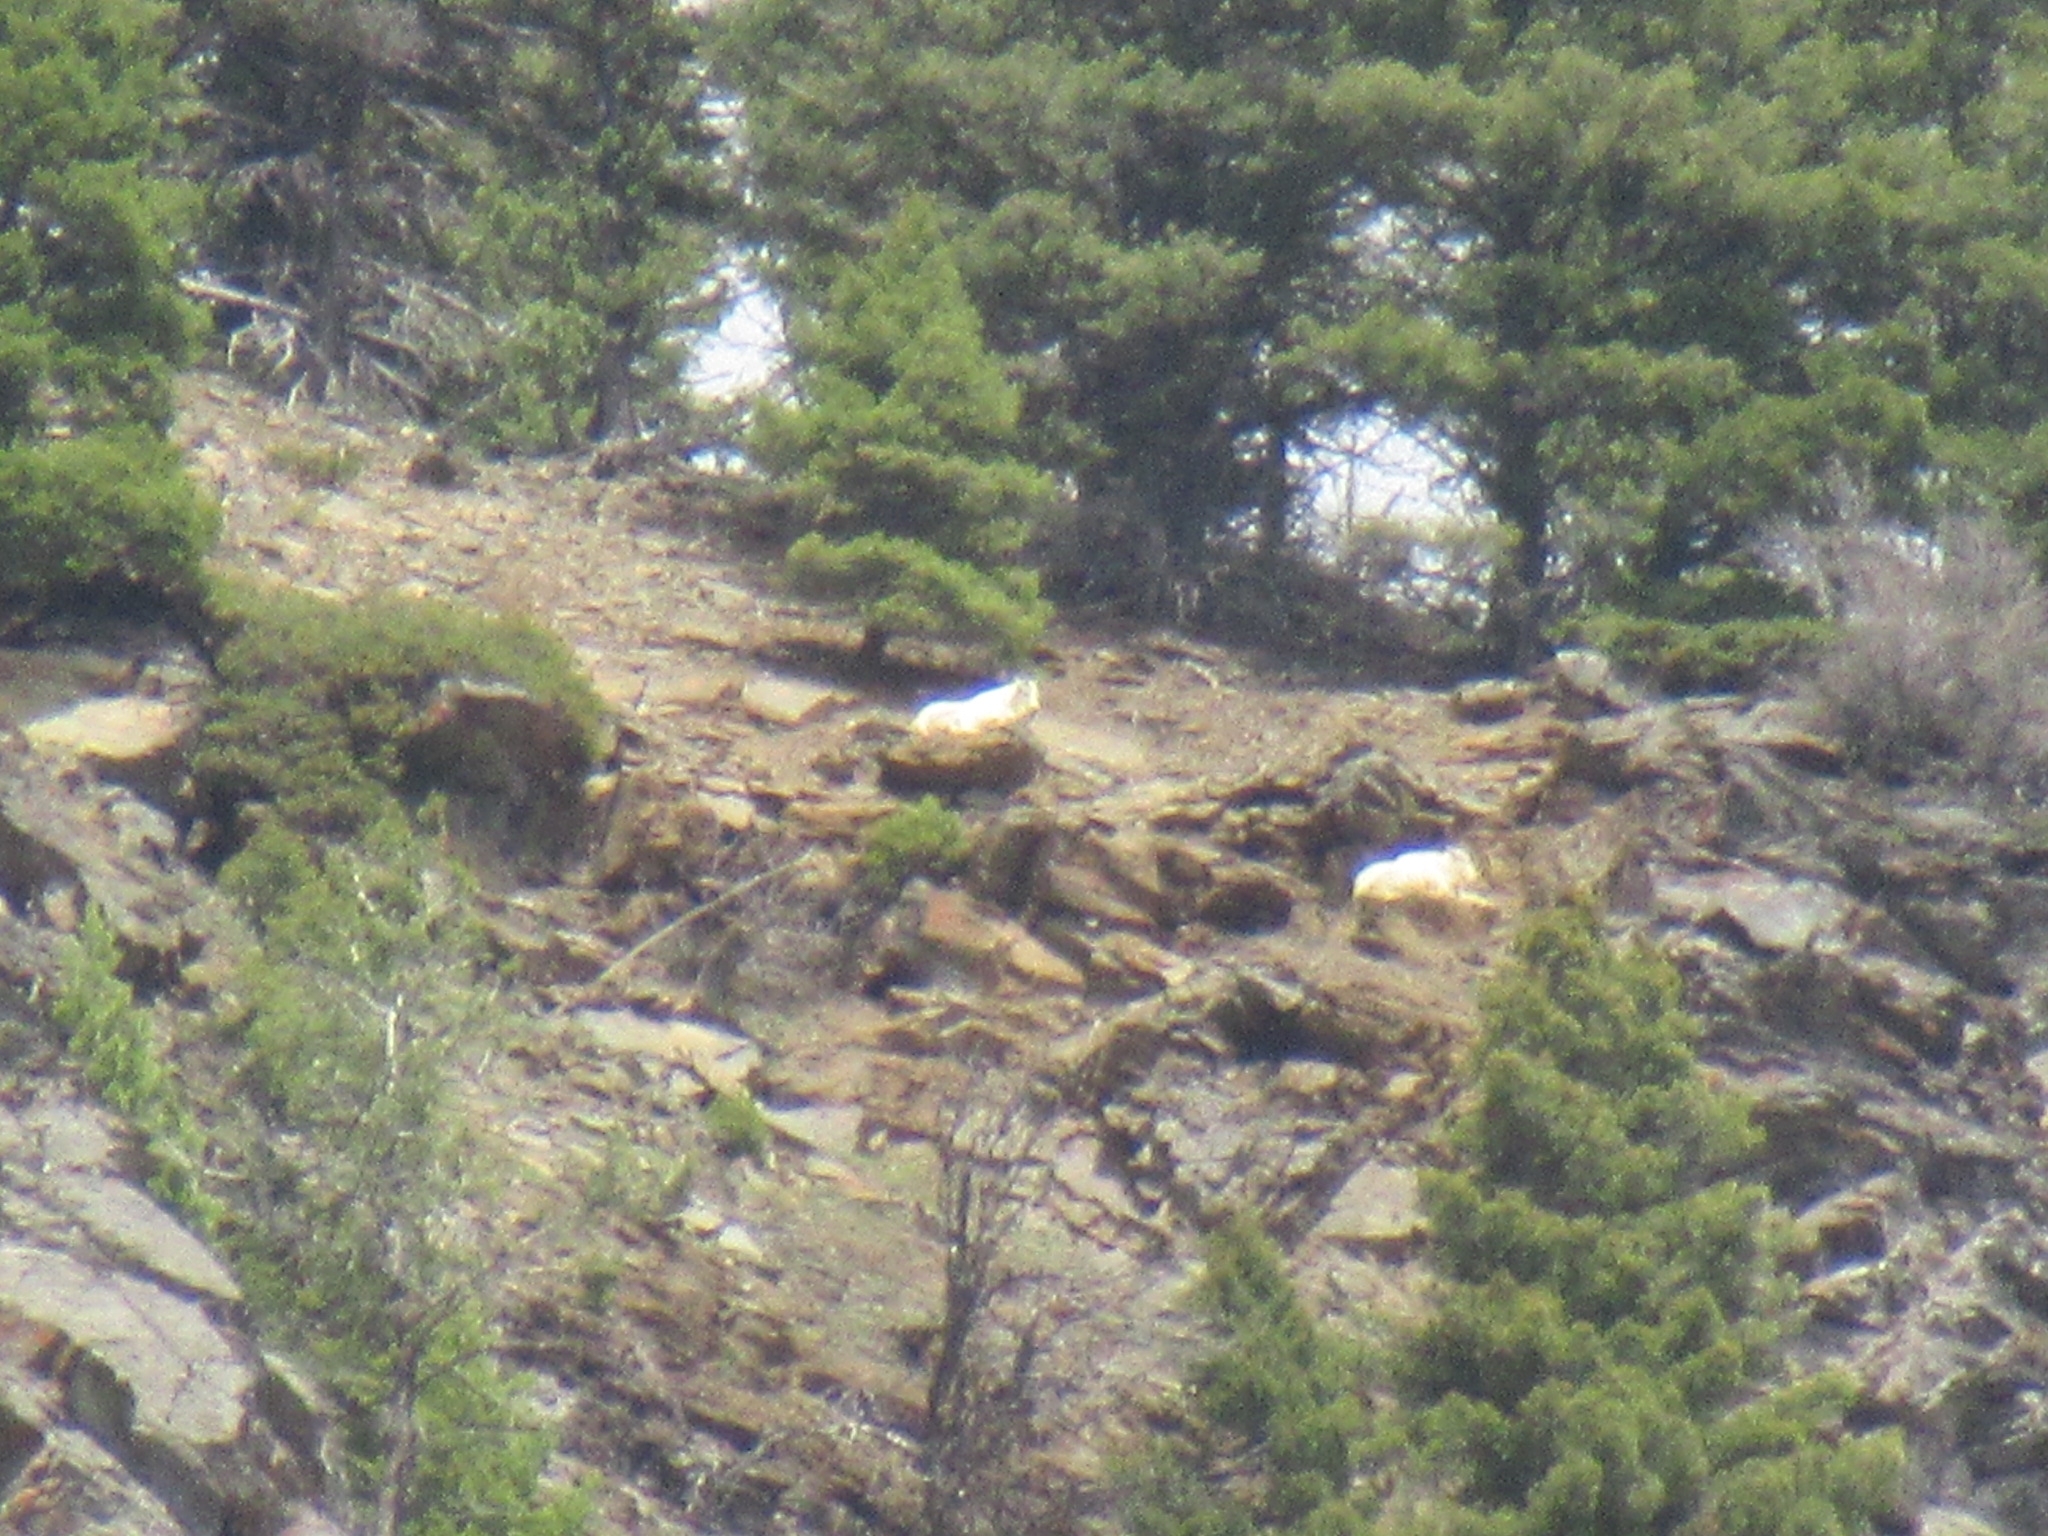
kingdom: Animalia
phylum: Chordata
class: Mammalia
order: Artiodactyla
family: Bovidae
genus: Oreamnos
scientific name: Oreamnos americanus
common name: Mountain goat
